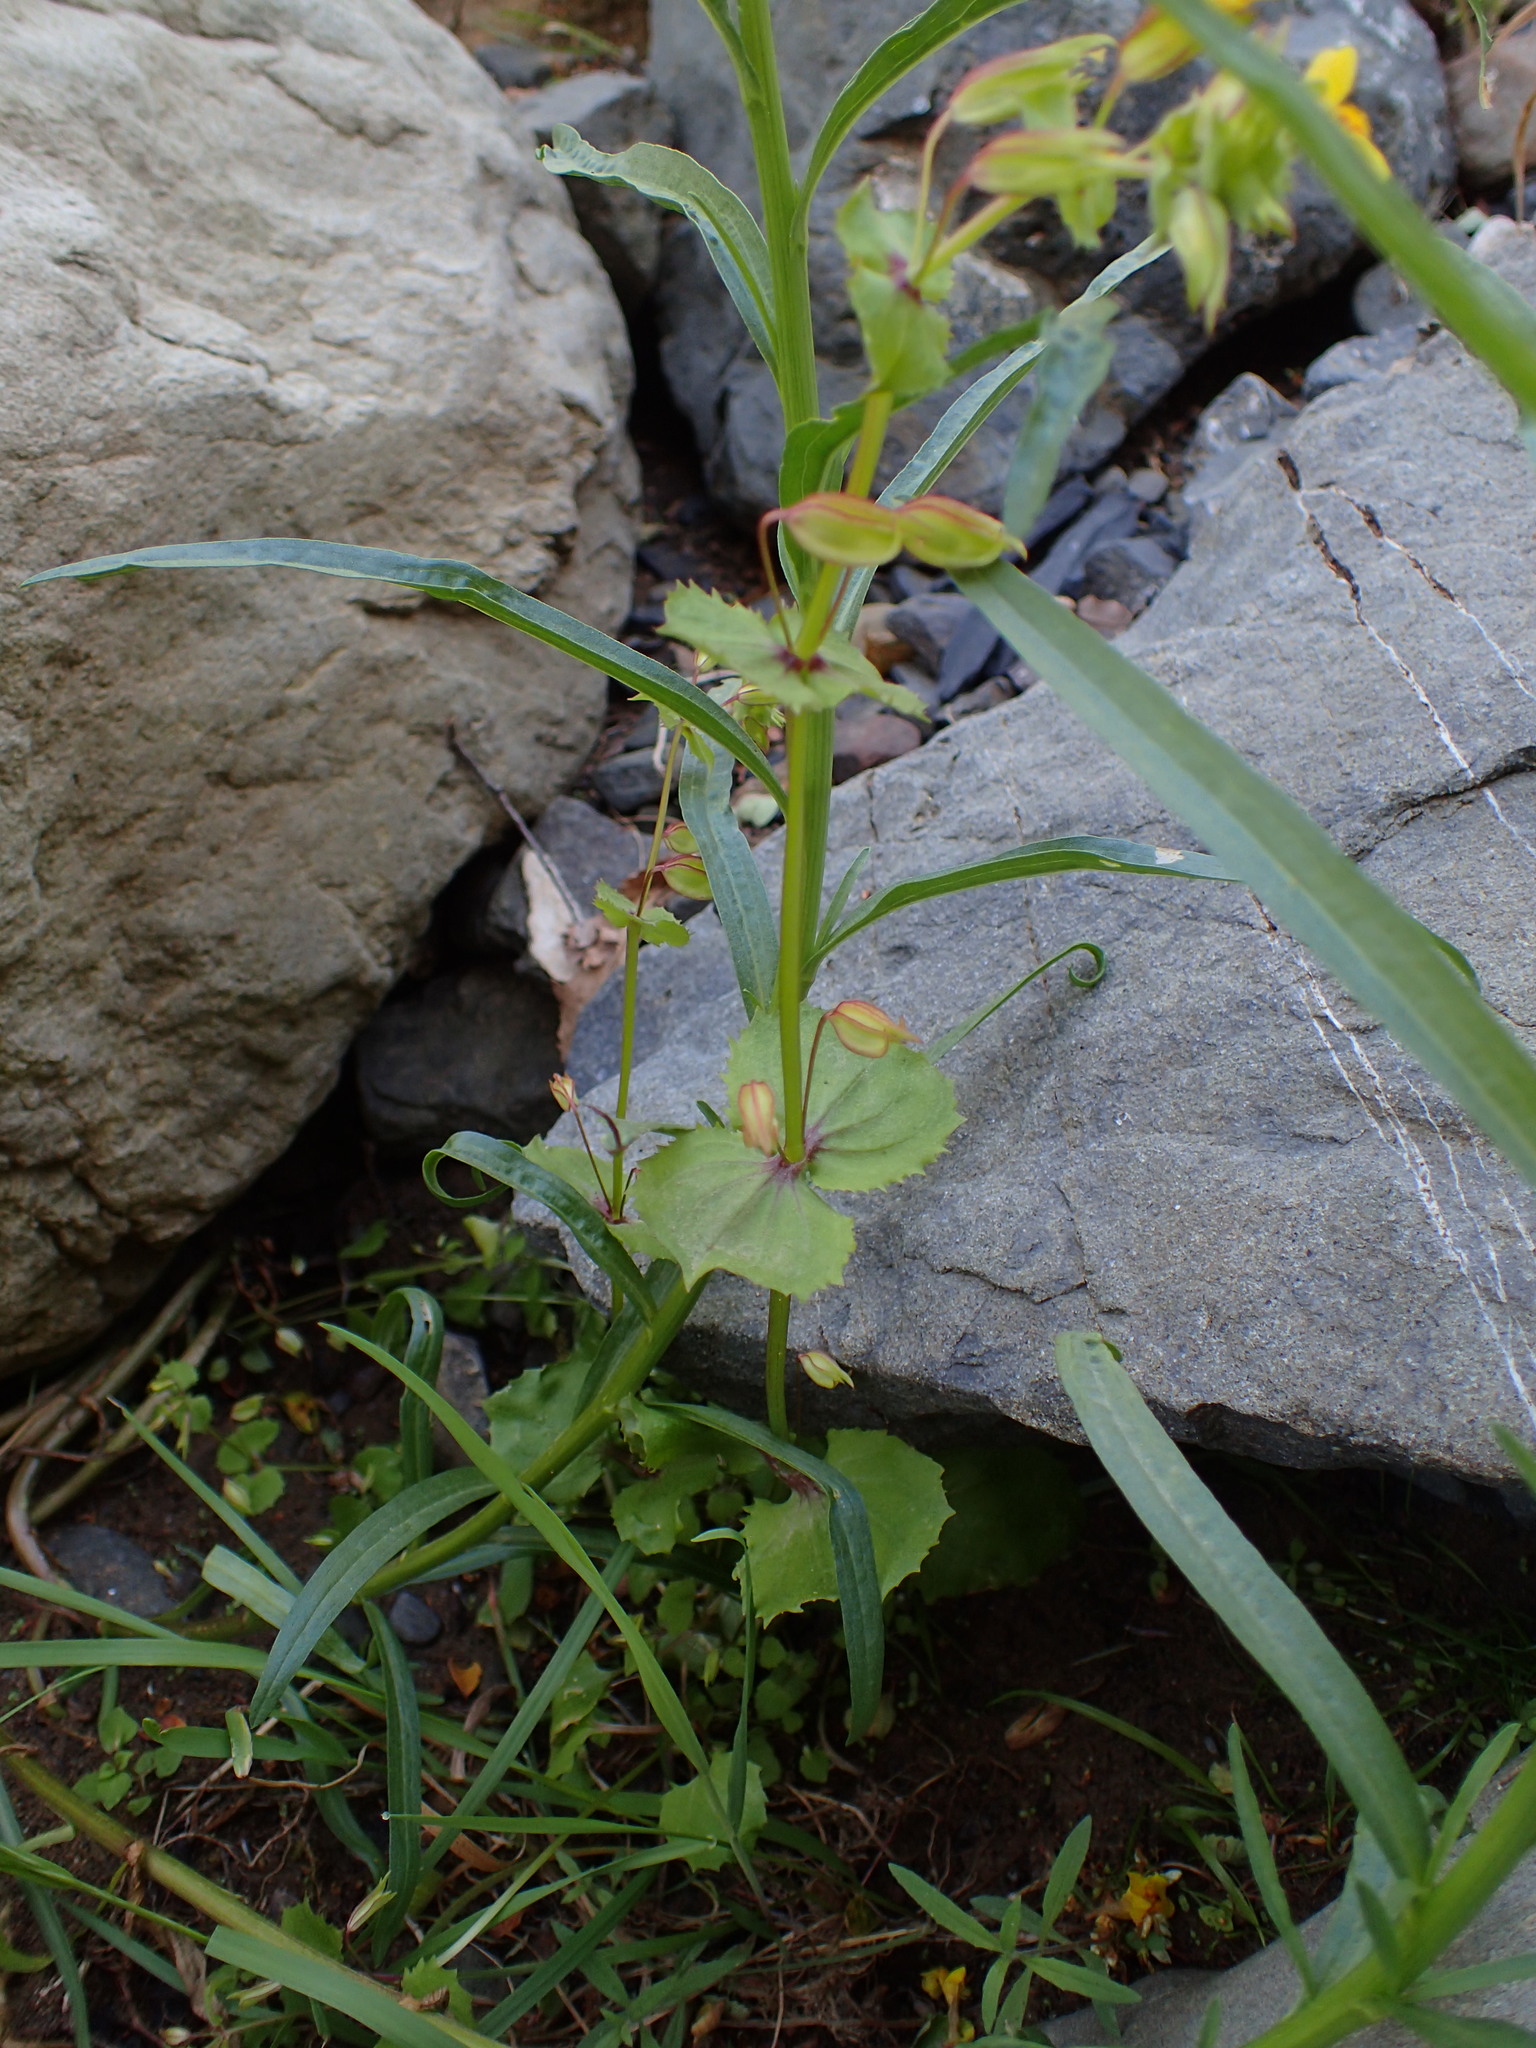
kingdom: Plantae
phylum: Tracheophyta
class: Magnoliopsida
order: Lamiales
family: Phrymaceae
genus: Erythranthe
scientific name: Erythranthe guttata
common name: Monkeyflower
